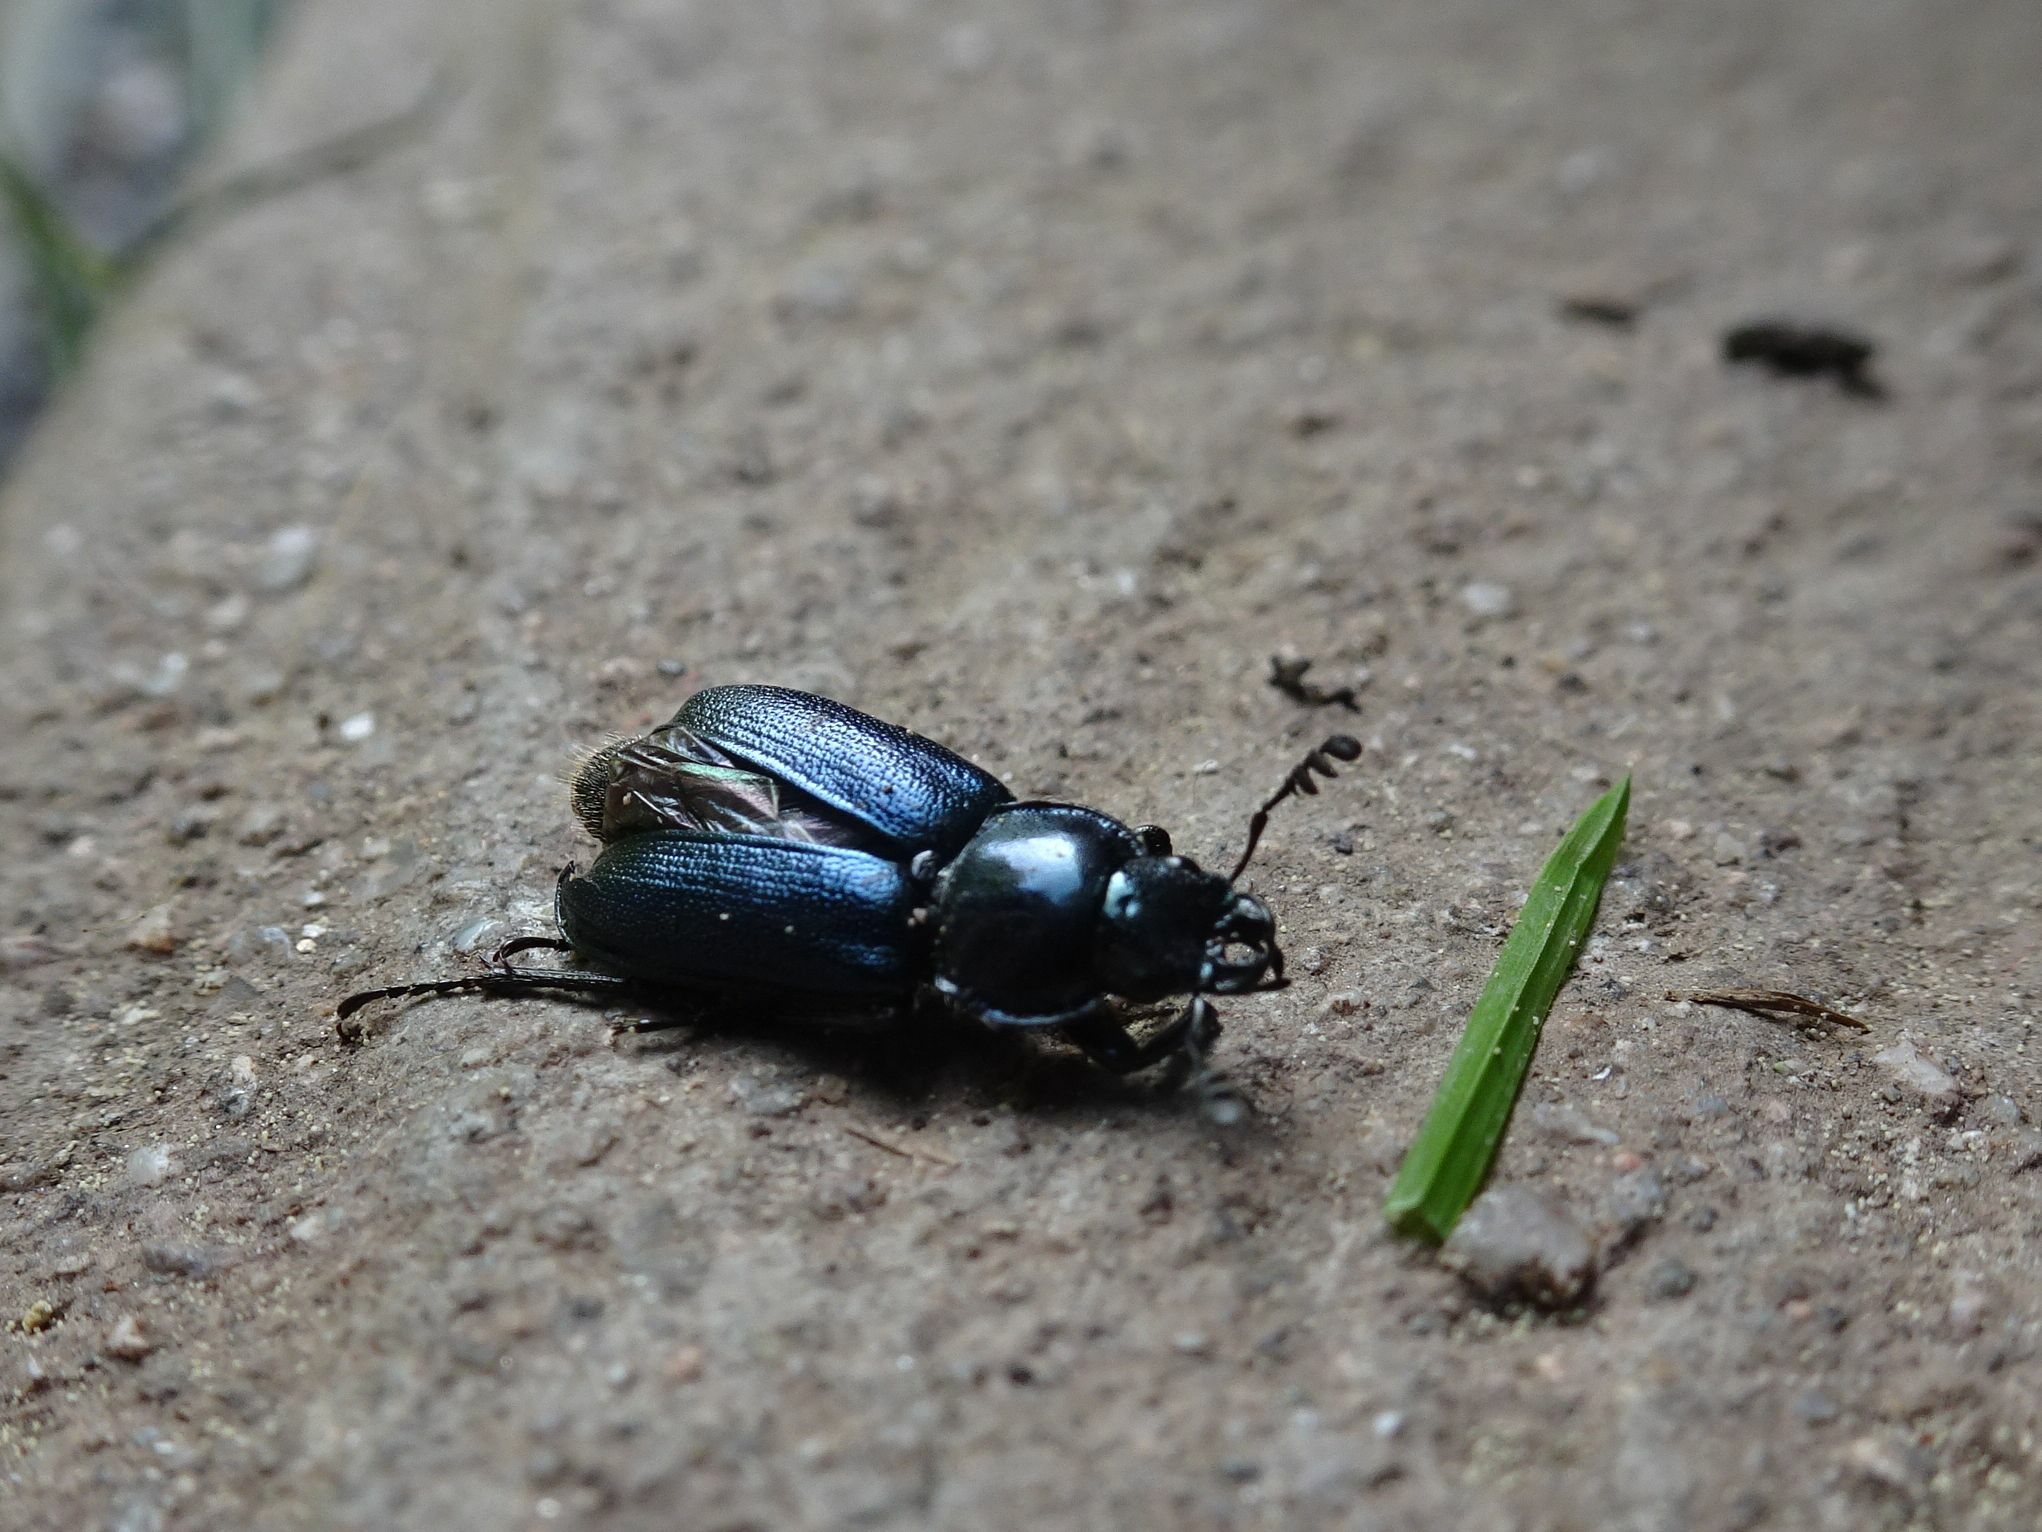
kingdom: Animalia
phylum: Arthropoda
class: Insecta
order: Coleoptera
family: Lucanidae
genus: Platycerus
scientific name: Platycerus caraboides
